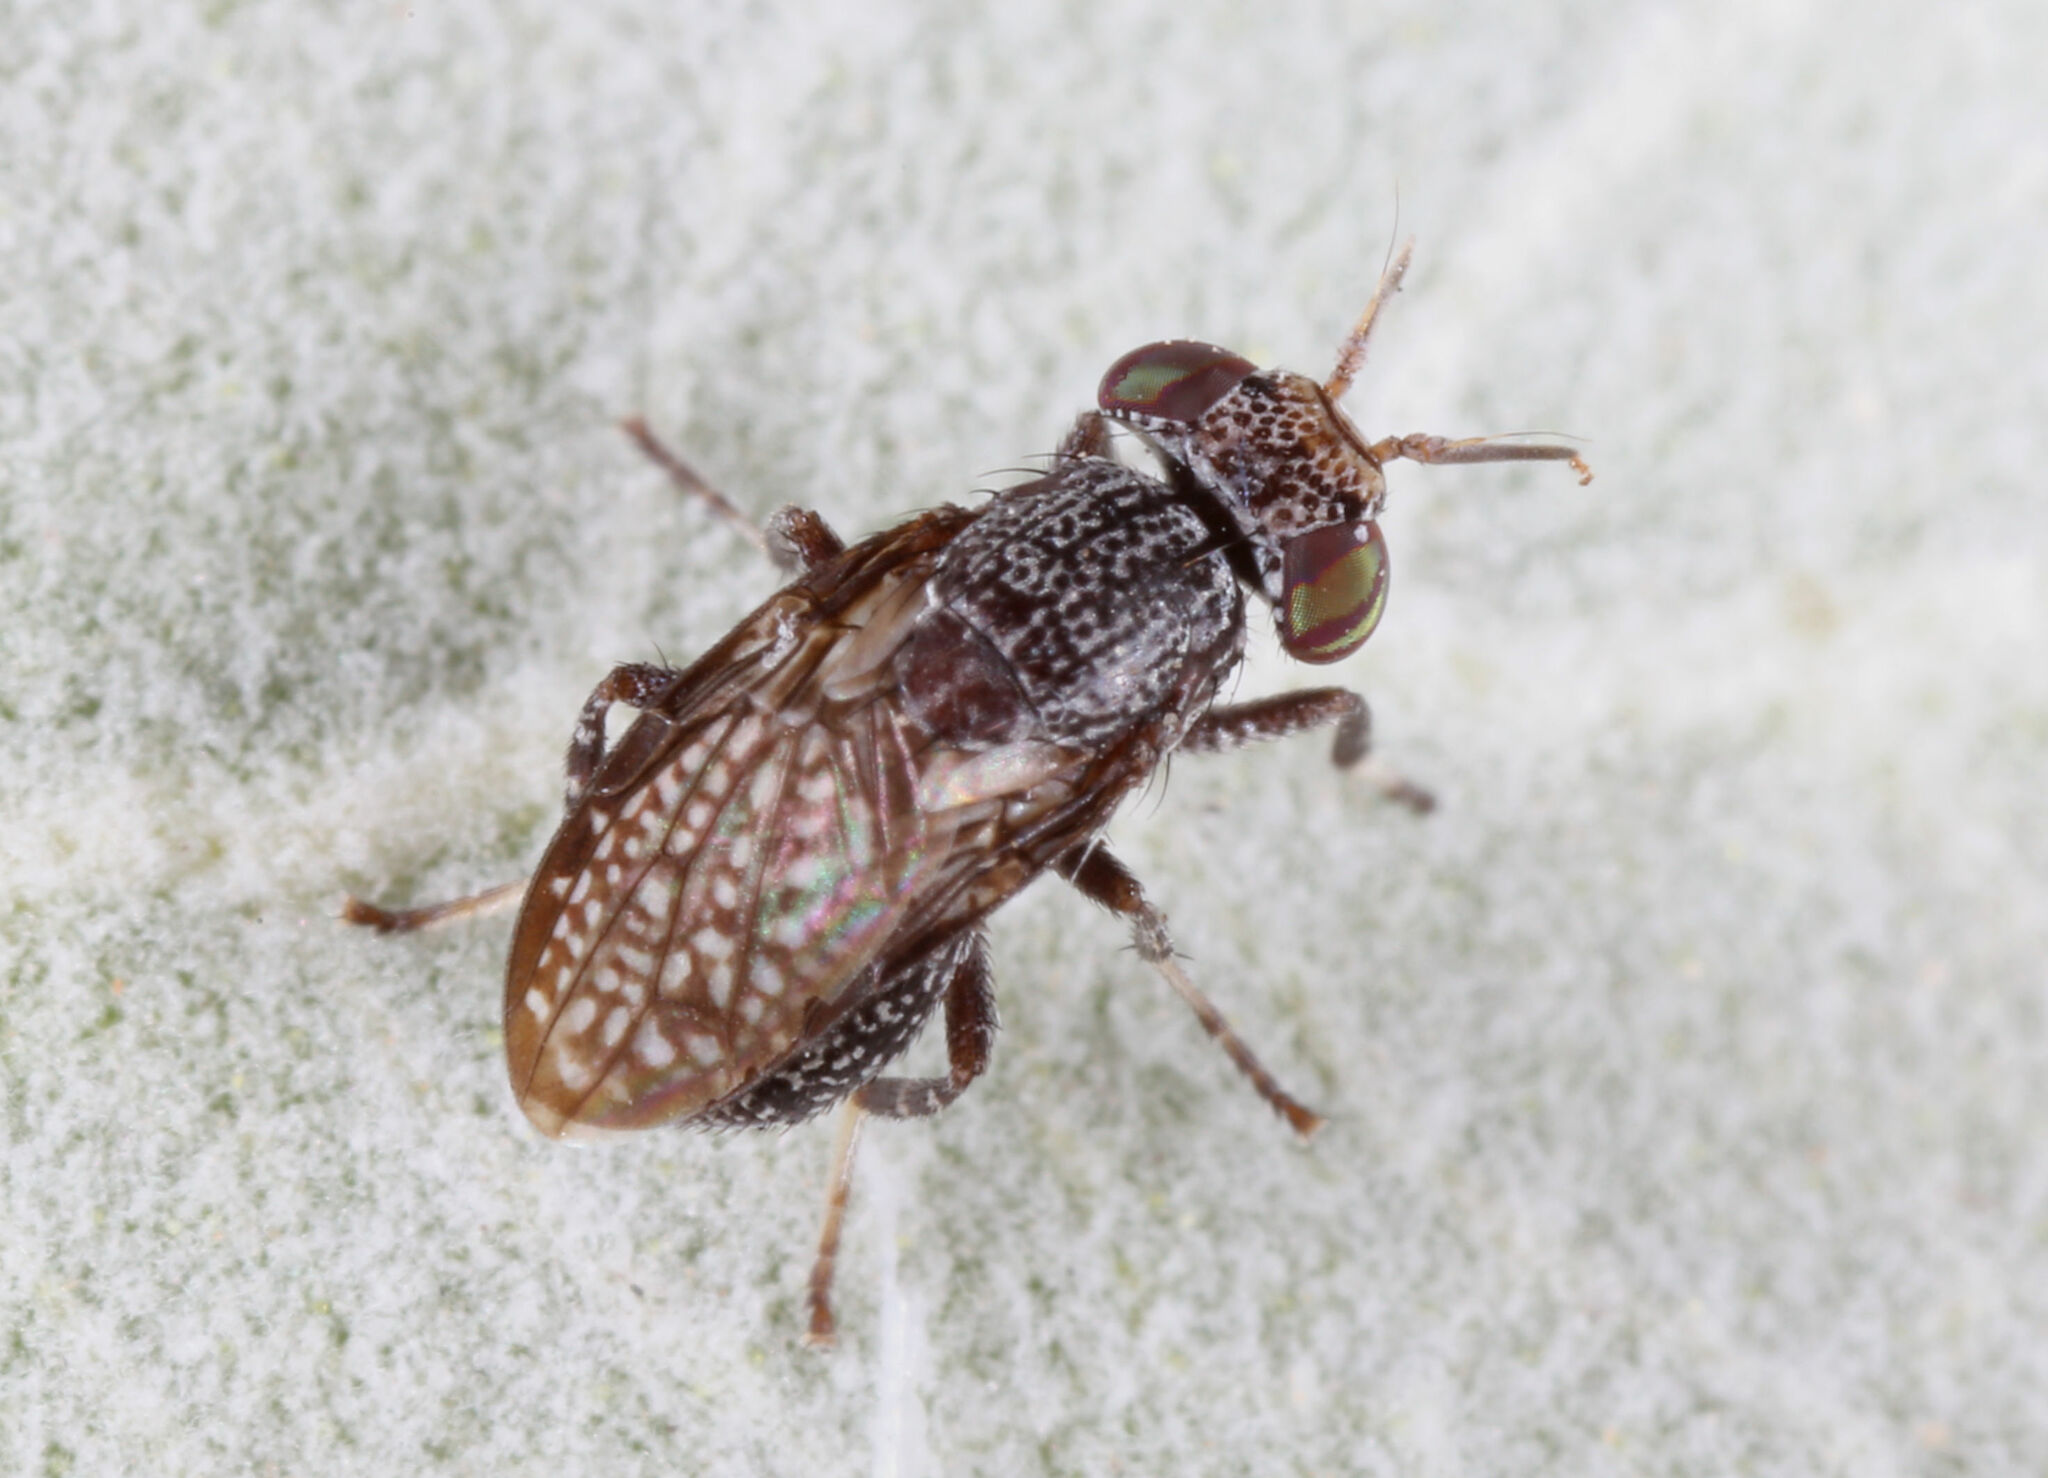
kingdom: Animalia
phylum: Arthropoda
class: Insecta
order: Diptera
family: Ulidiidae
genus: Stictomyia
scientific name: Stictomyia longicornis
